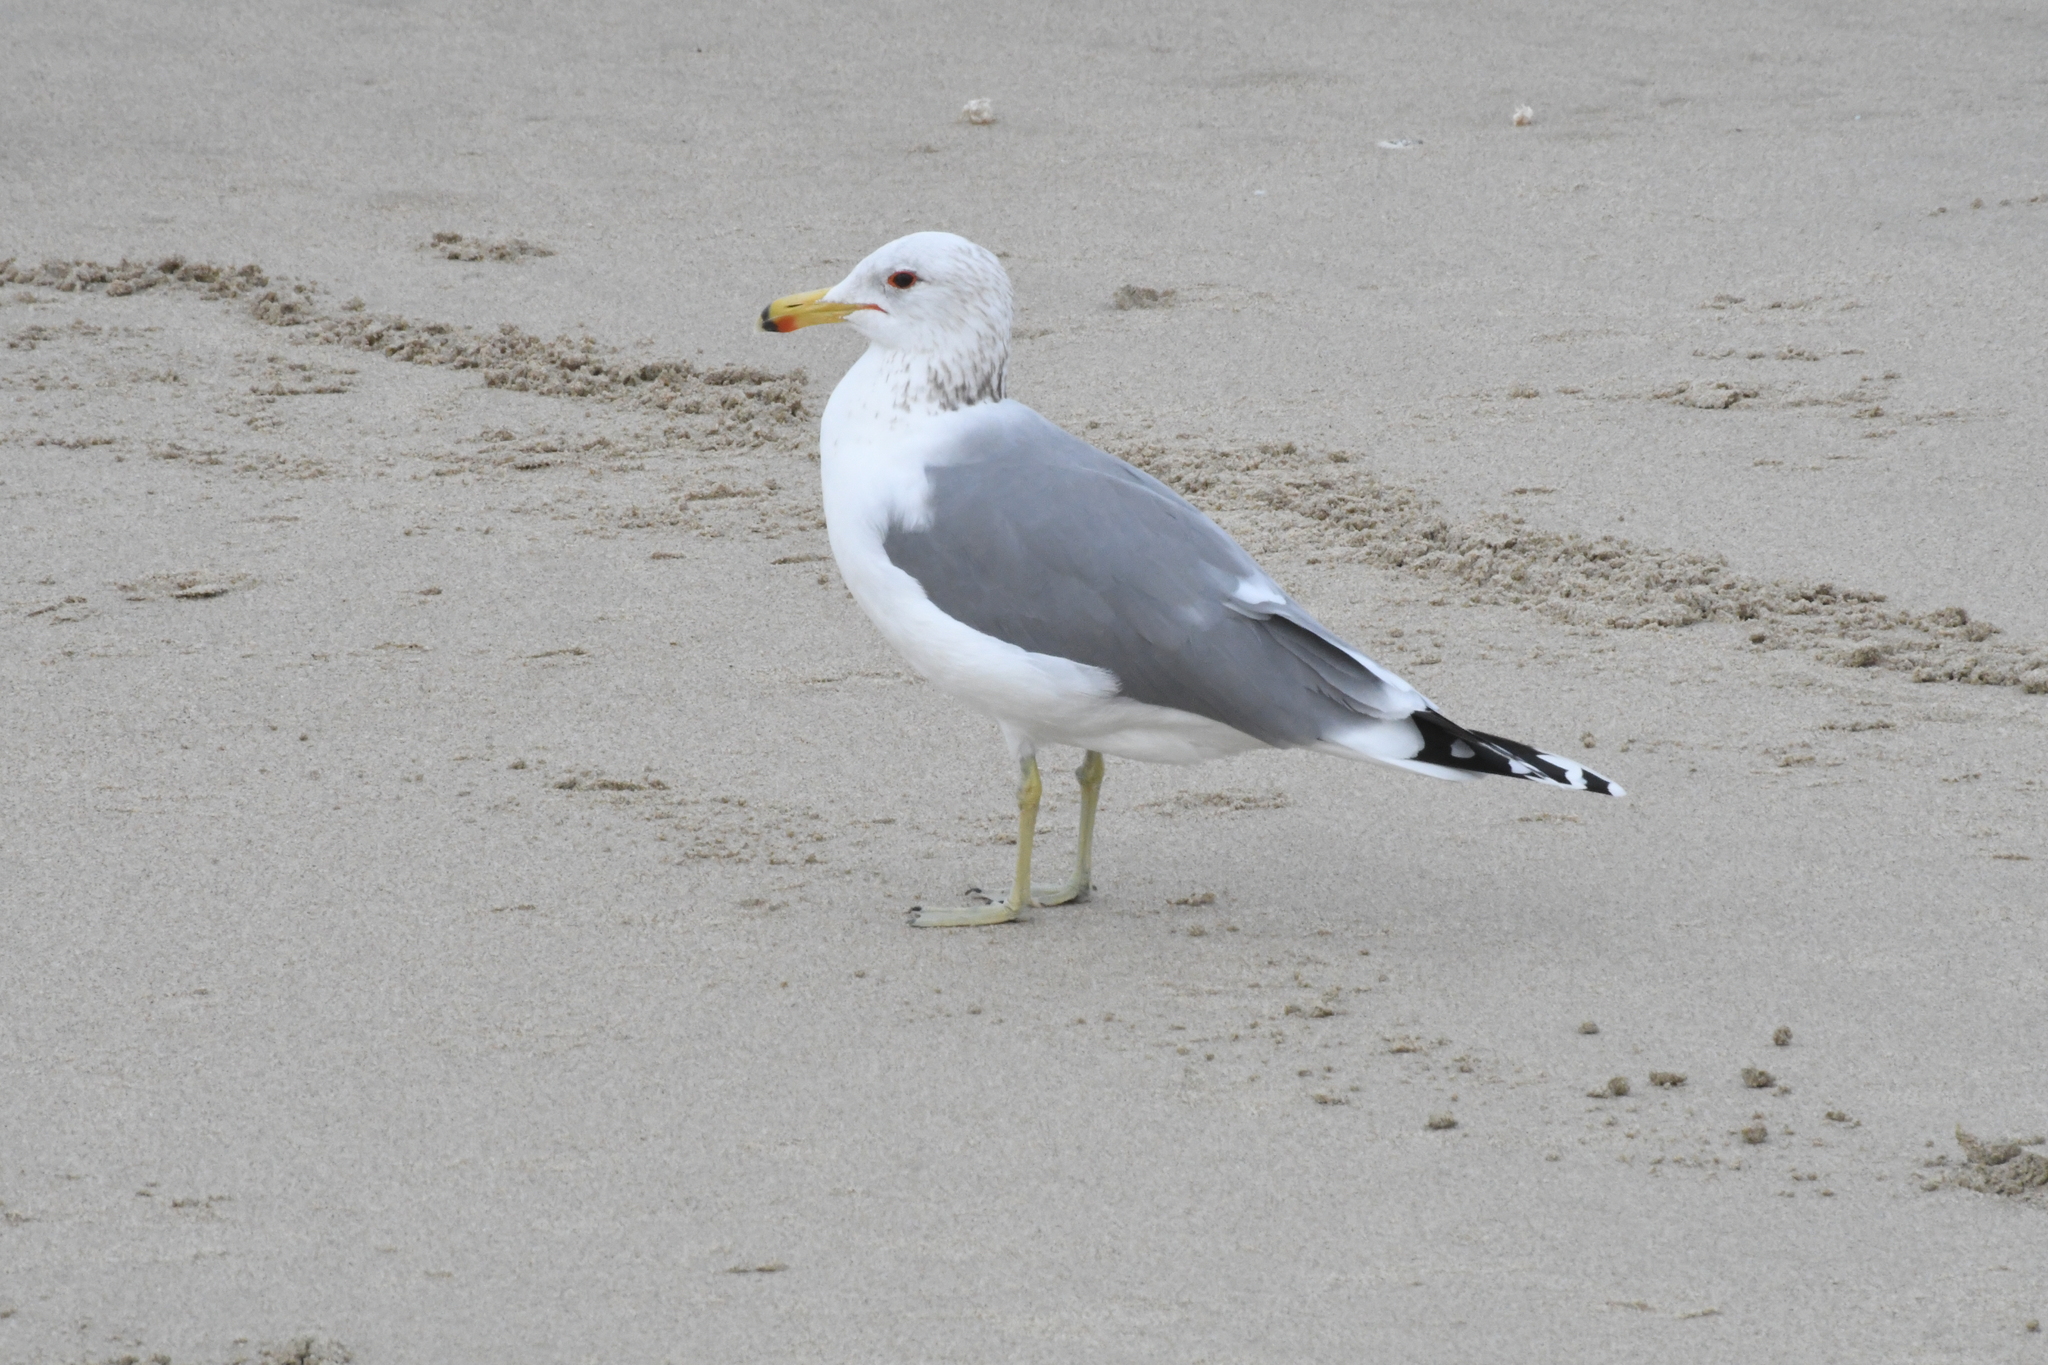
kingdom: Animalia
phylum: Chordata
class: Aves
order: Charadriiformes
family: Laridae
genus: Larus
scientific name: Larus californicus
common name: California gull
